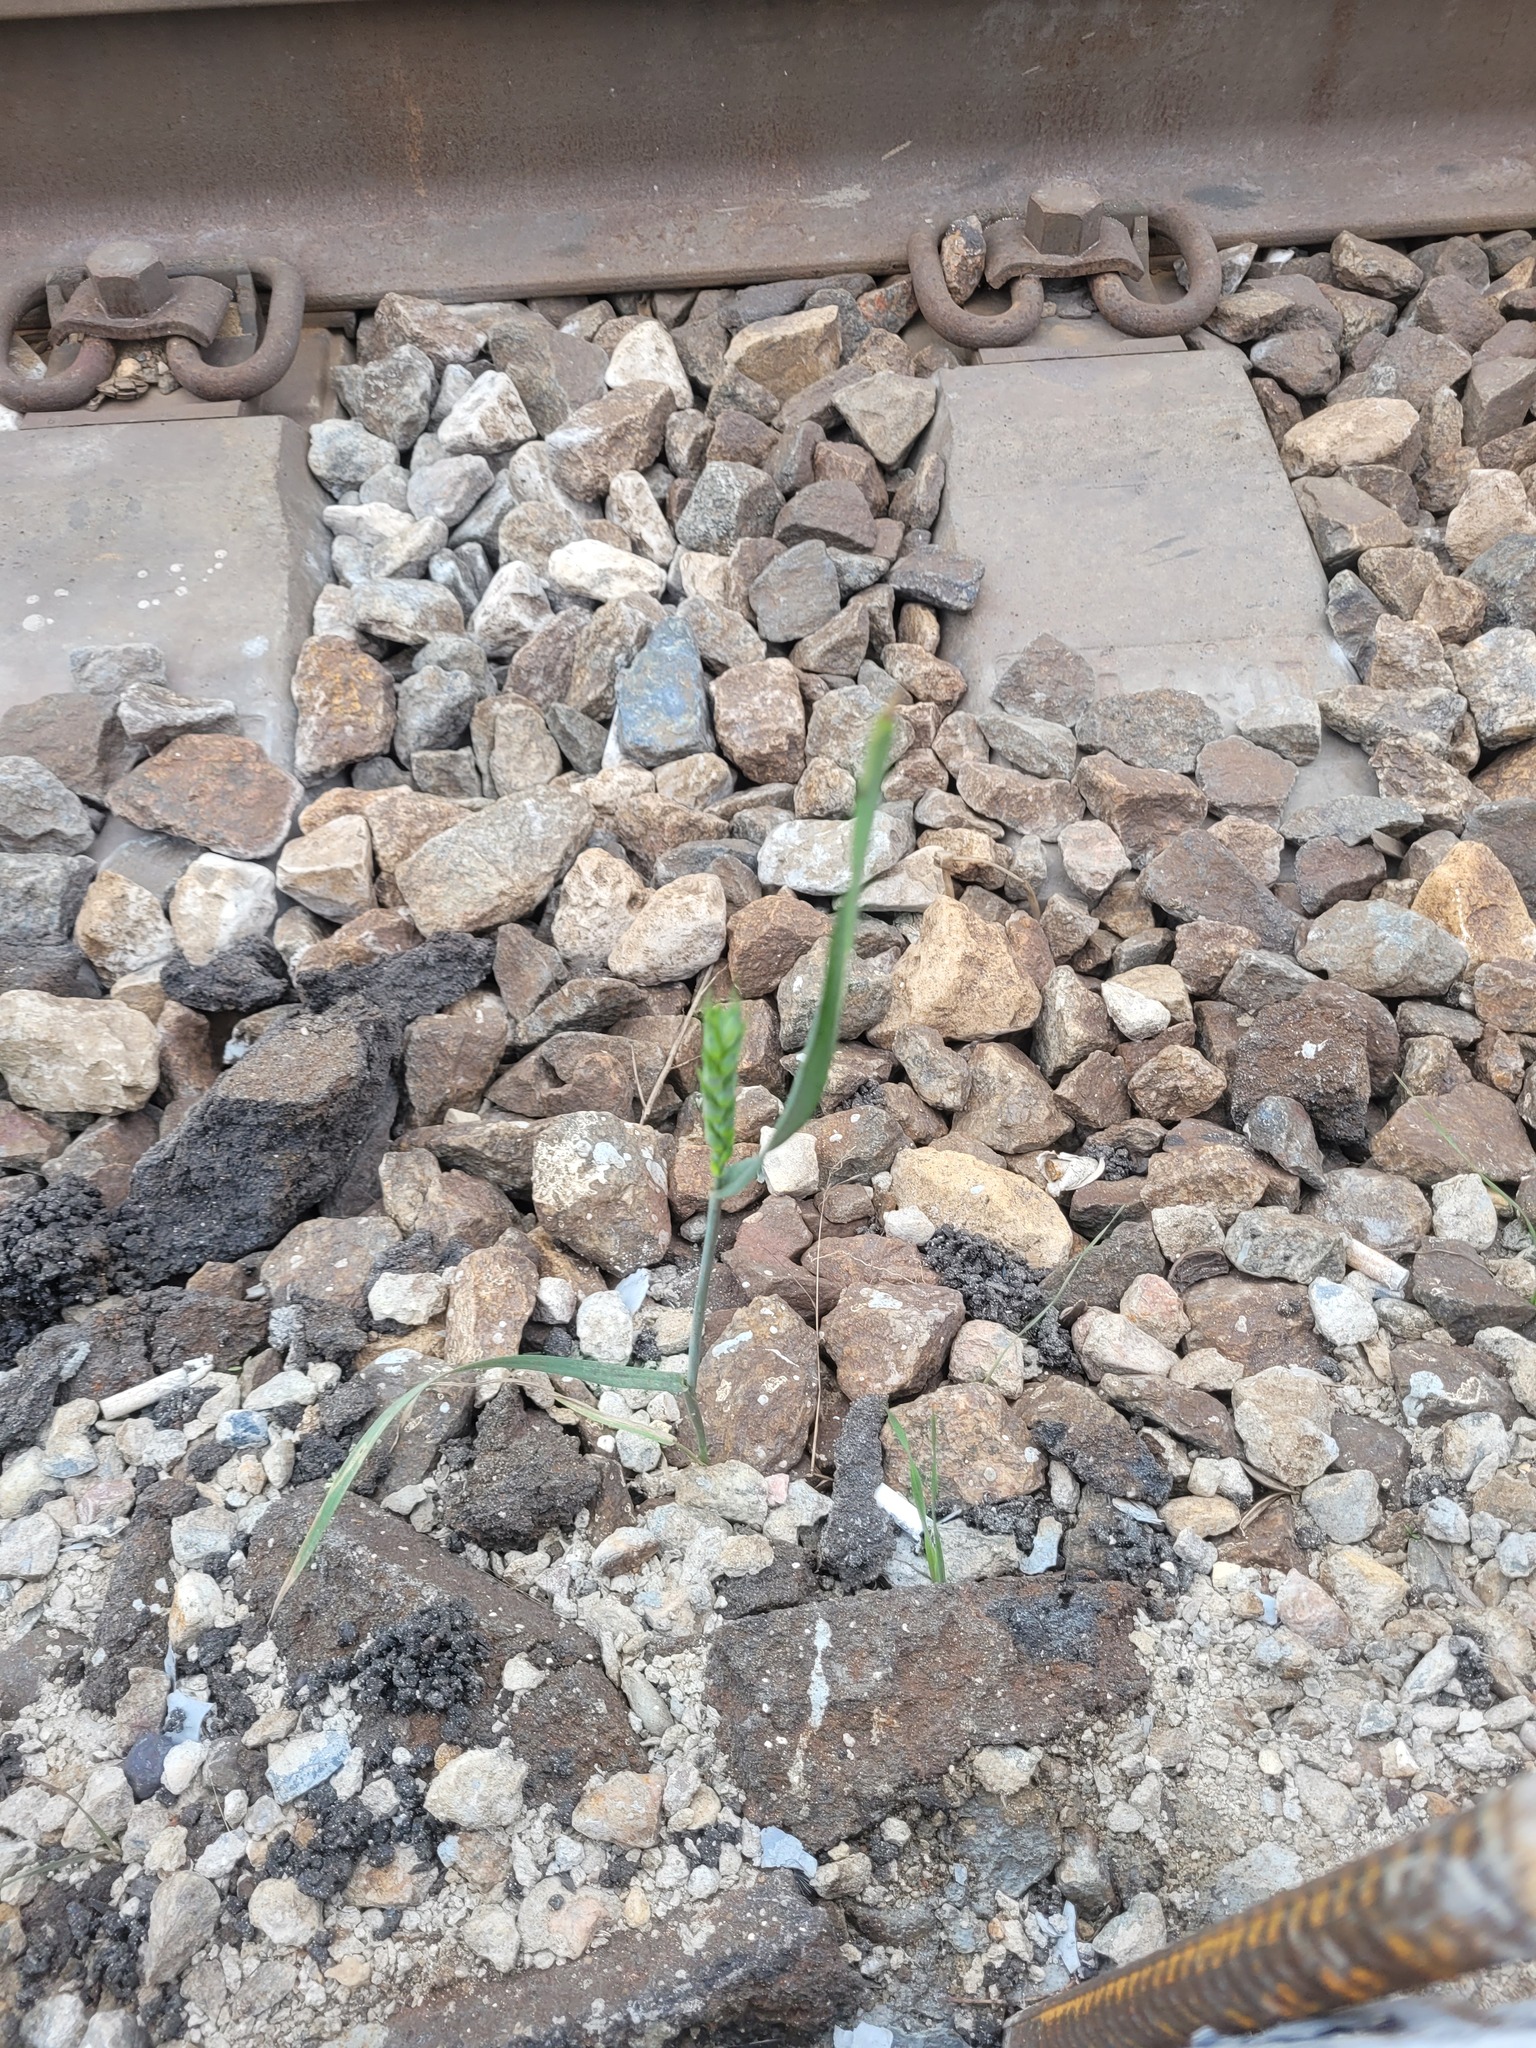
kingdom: Plantae
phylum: Tracheophyta
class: Liliopsida
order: Poales
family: Poaceae
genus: Triticum
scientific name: Triticum aestivum
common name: Common wheat
